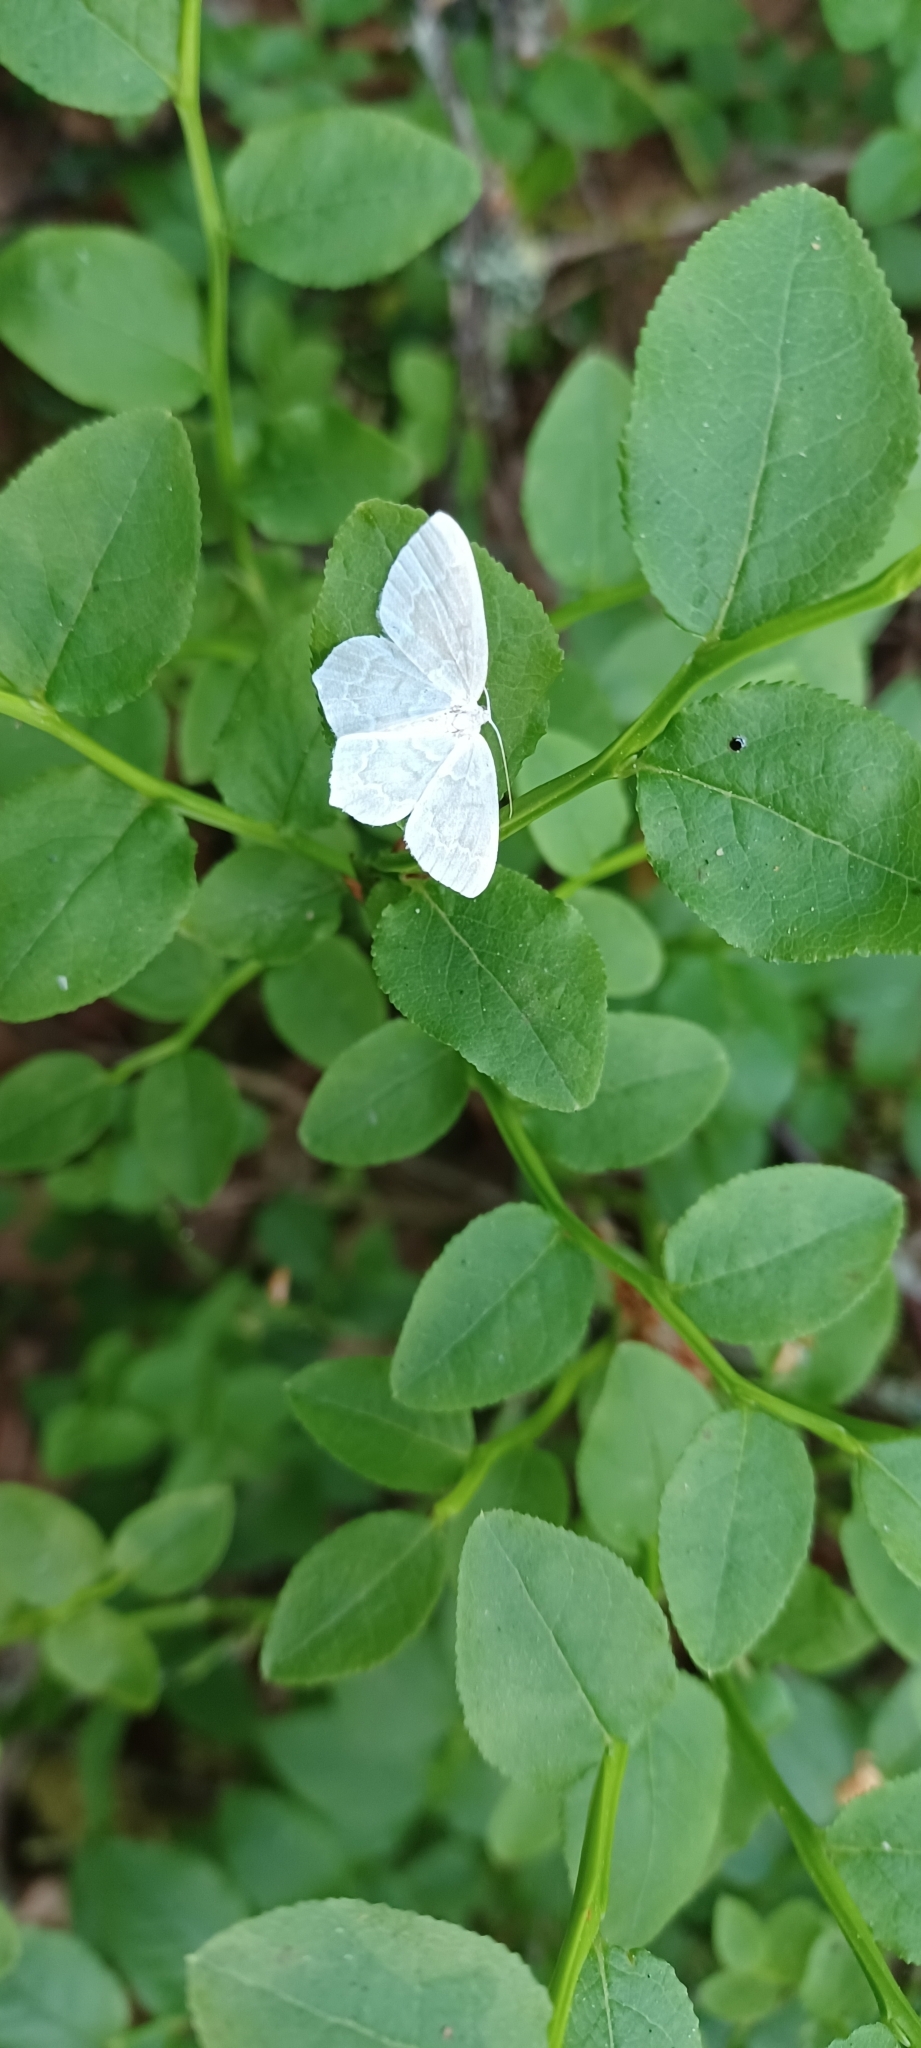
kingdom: Animalia
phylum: Arthropoda
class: Insecta
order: Lepidoptera
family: Geometridae
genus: Jodis
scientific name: Jodis putata
